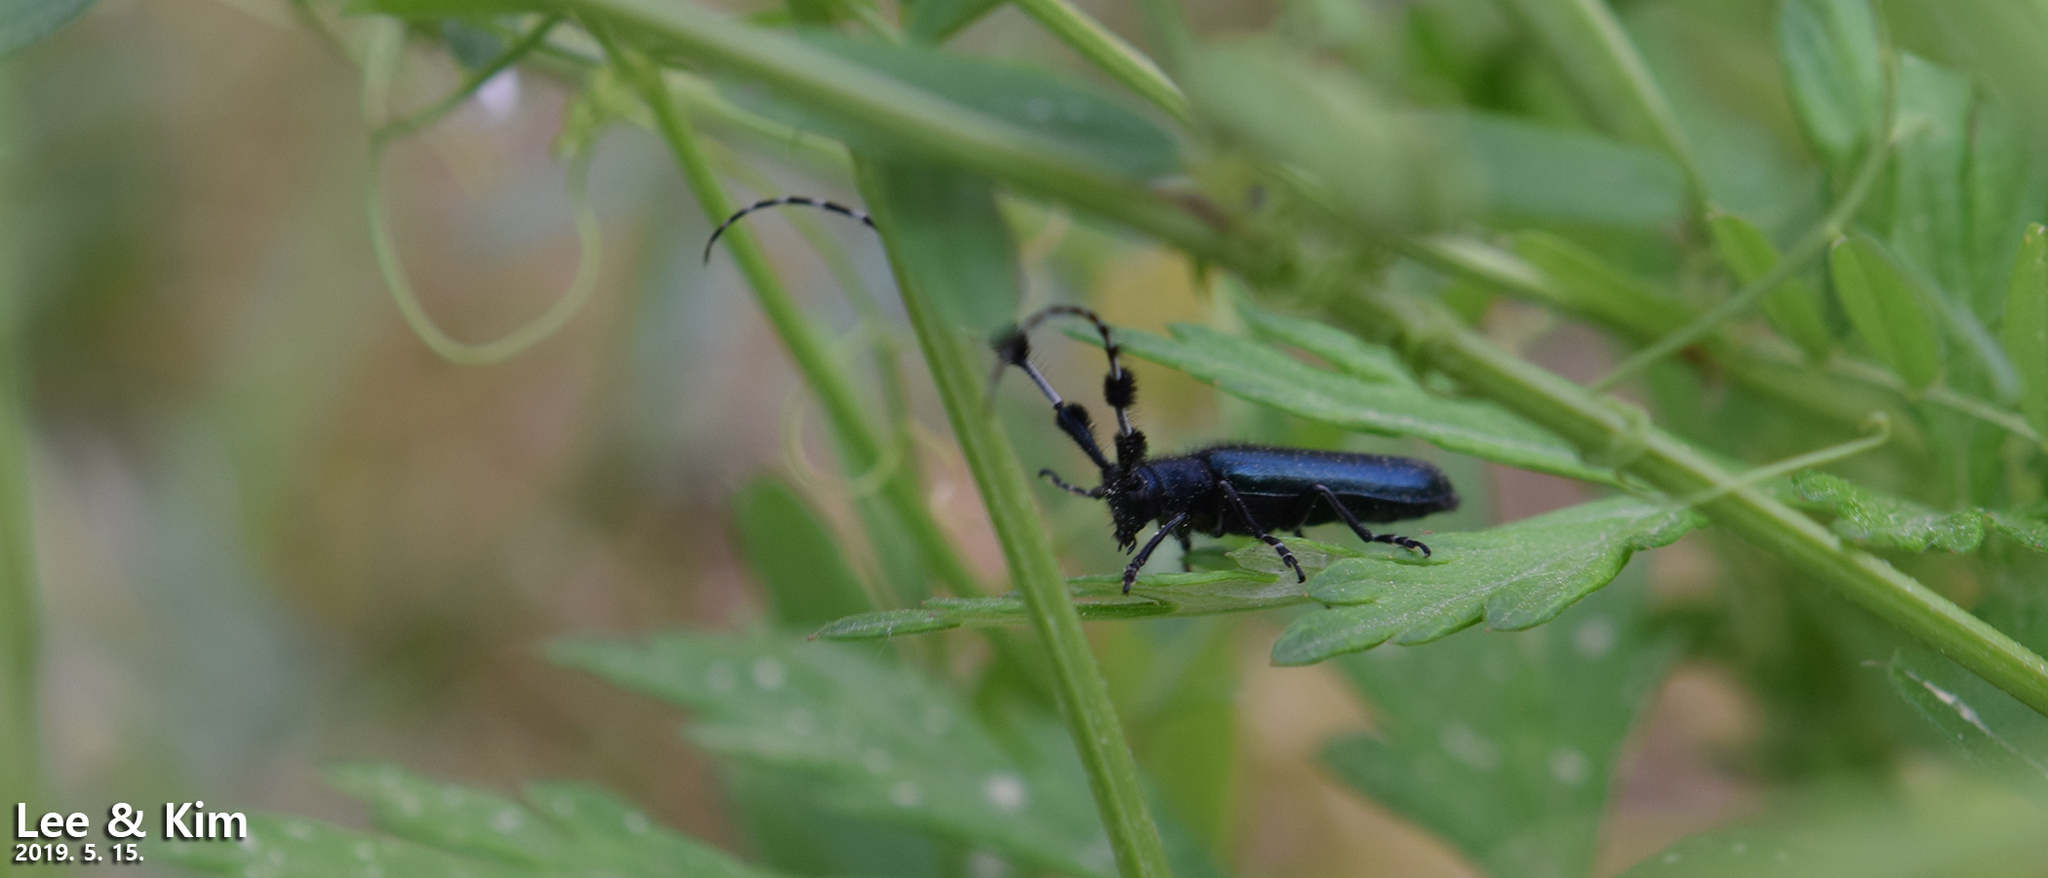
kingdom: Animalia
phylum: Arthropoda
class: Insecta
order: Coleoptera
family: Cerambycidae
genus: Agapanthia
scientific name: Agapanthia amurensis
